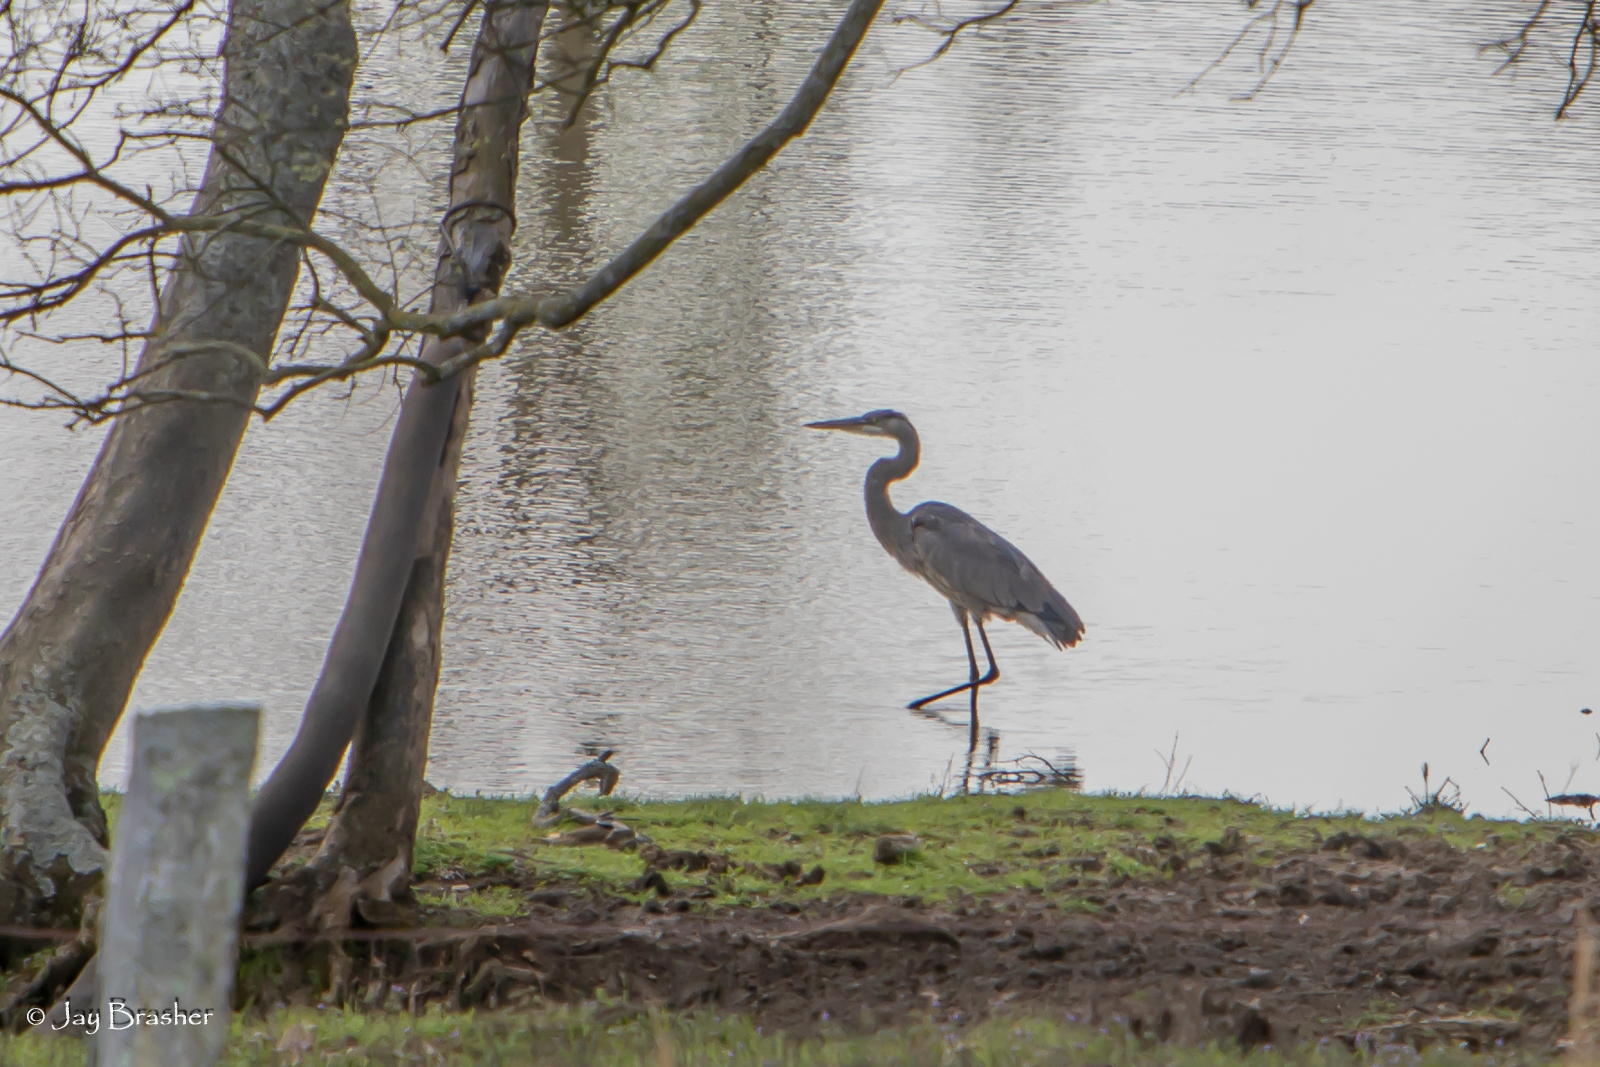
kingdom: Animalia
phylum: Chordata
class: Aves
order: Pelecaniformes
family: Ardeidae
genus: Ardea
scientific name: Ardea herodias
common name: Great blue heron
